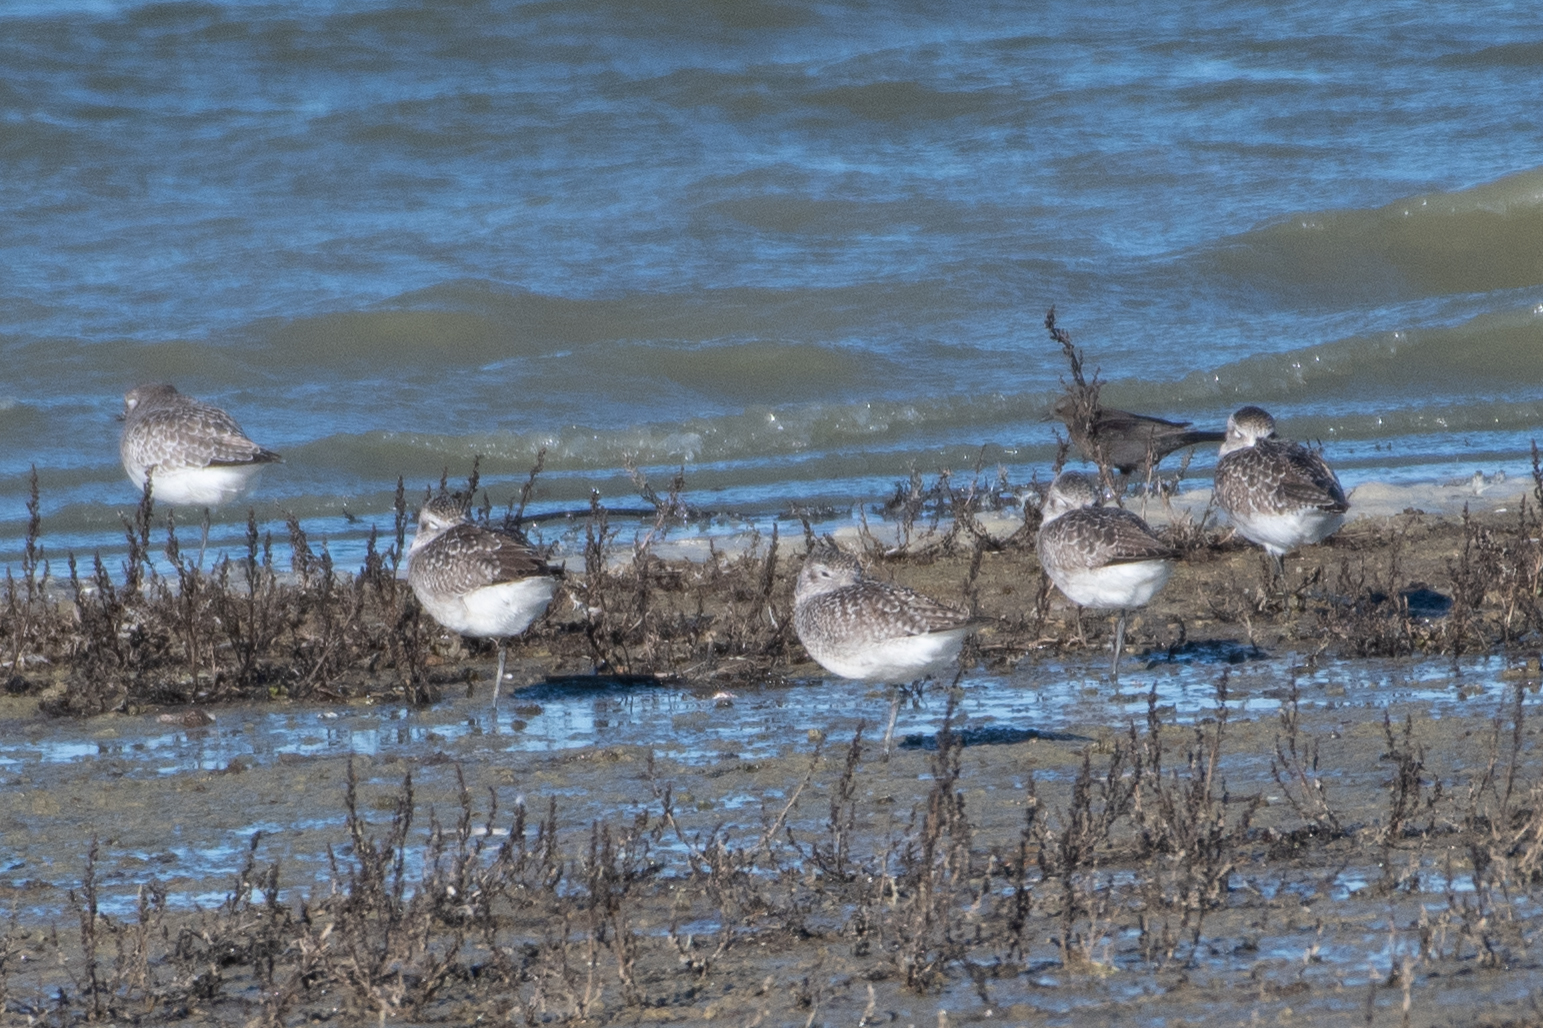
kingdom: Animalia
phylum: Chordata
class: Aves
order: Charadriiformes
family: Charadriidae
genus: Pluvialis
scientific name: Pluvialis squatarola
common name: Grey plover
